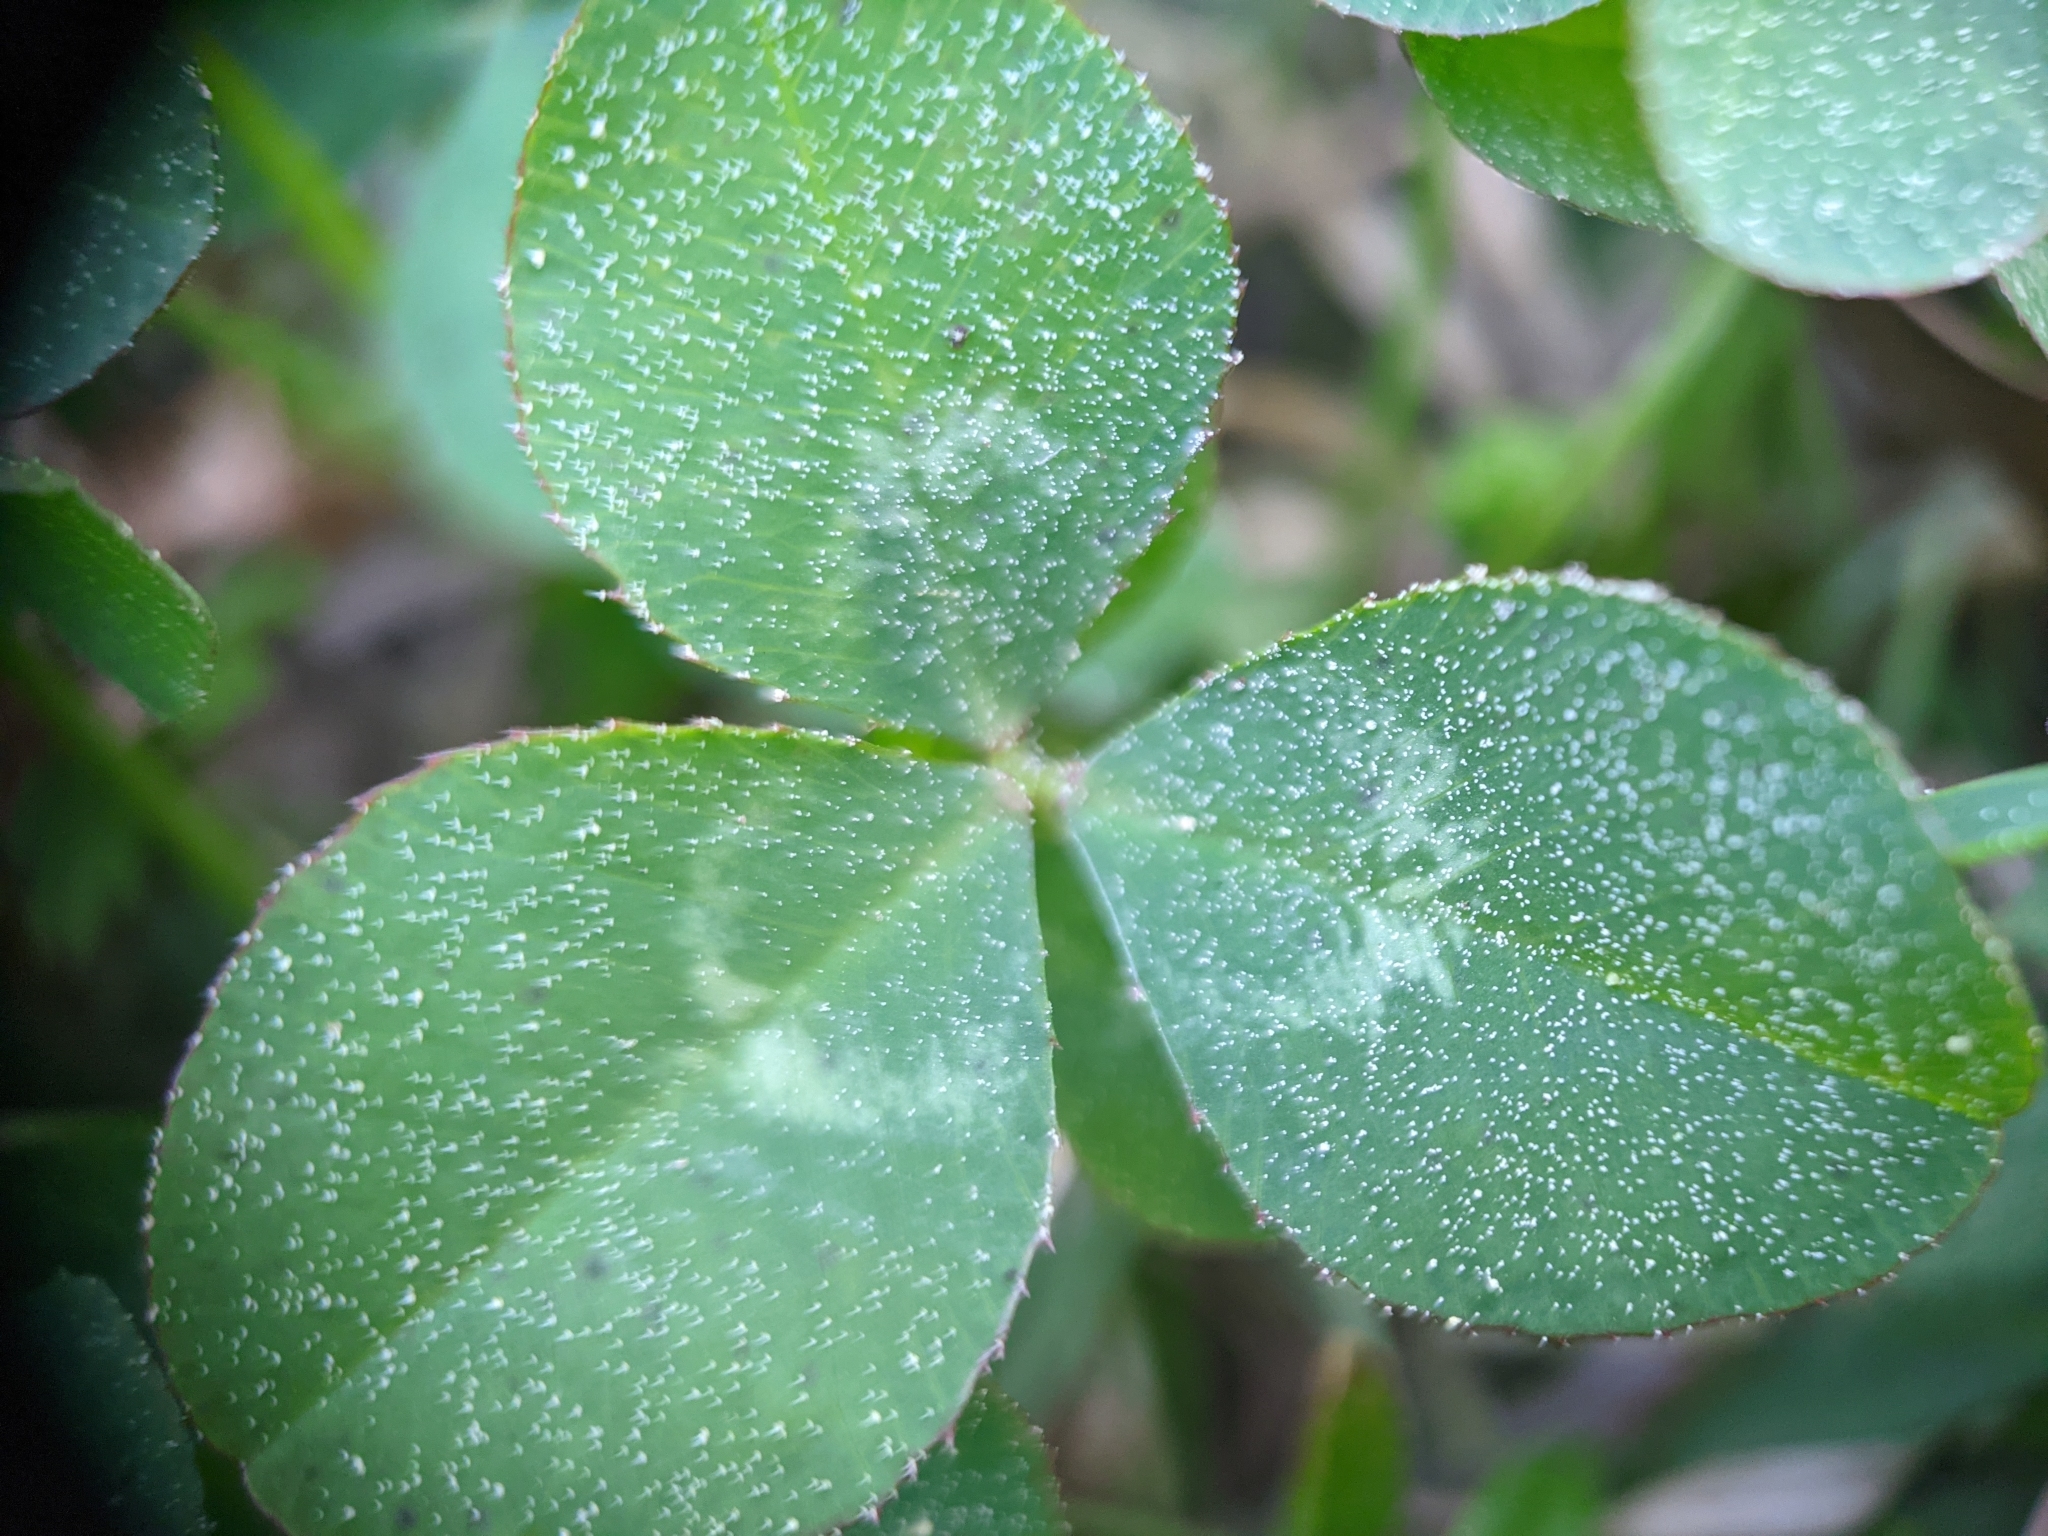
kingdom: Plantae
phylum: Tracheophyta
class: Magnoliopsida
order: Fabales
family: Fabaceae
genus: Trifolium
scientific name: Trifolium repens
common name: White clover
